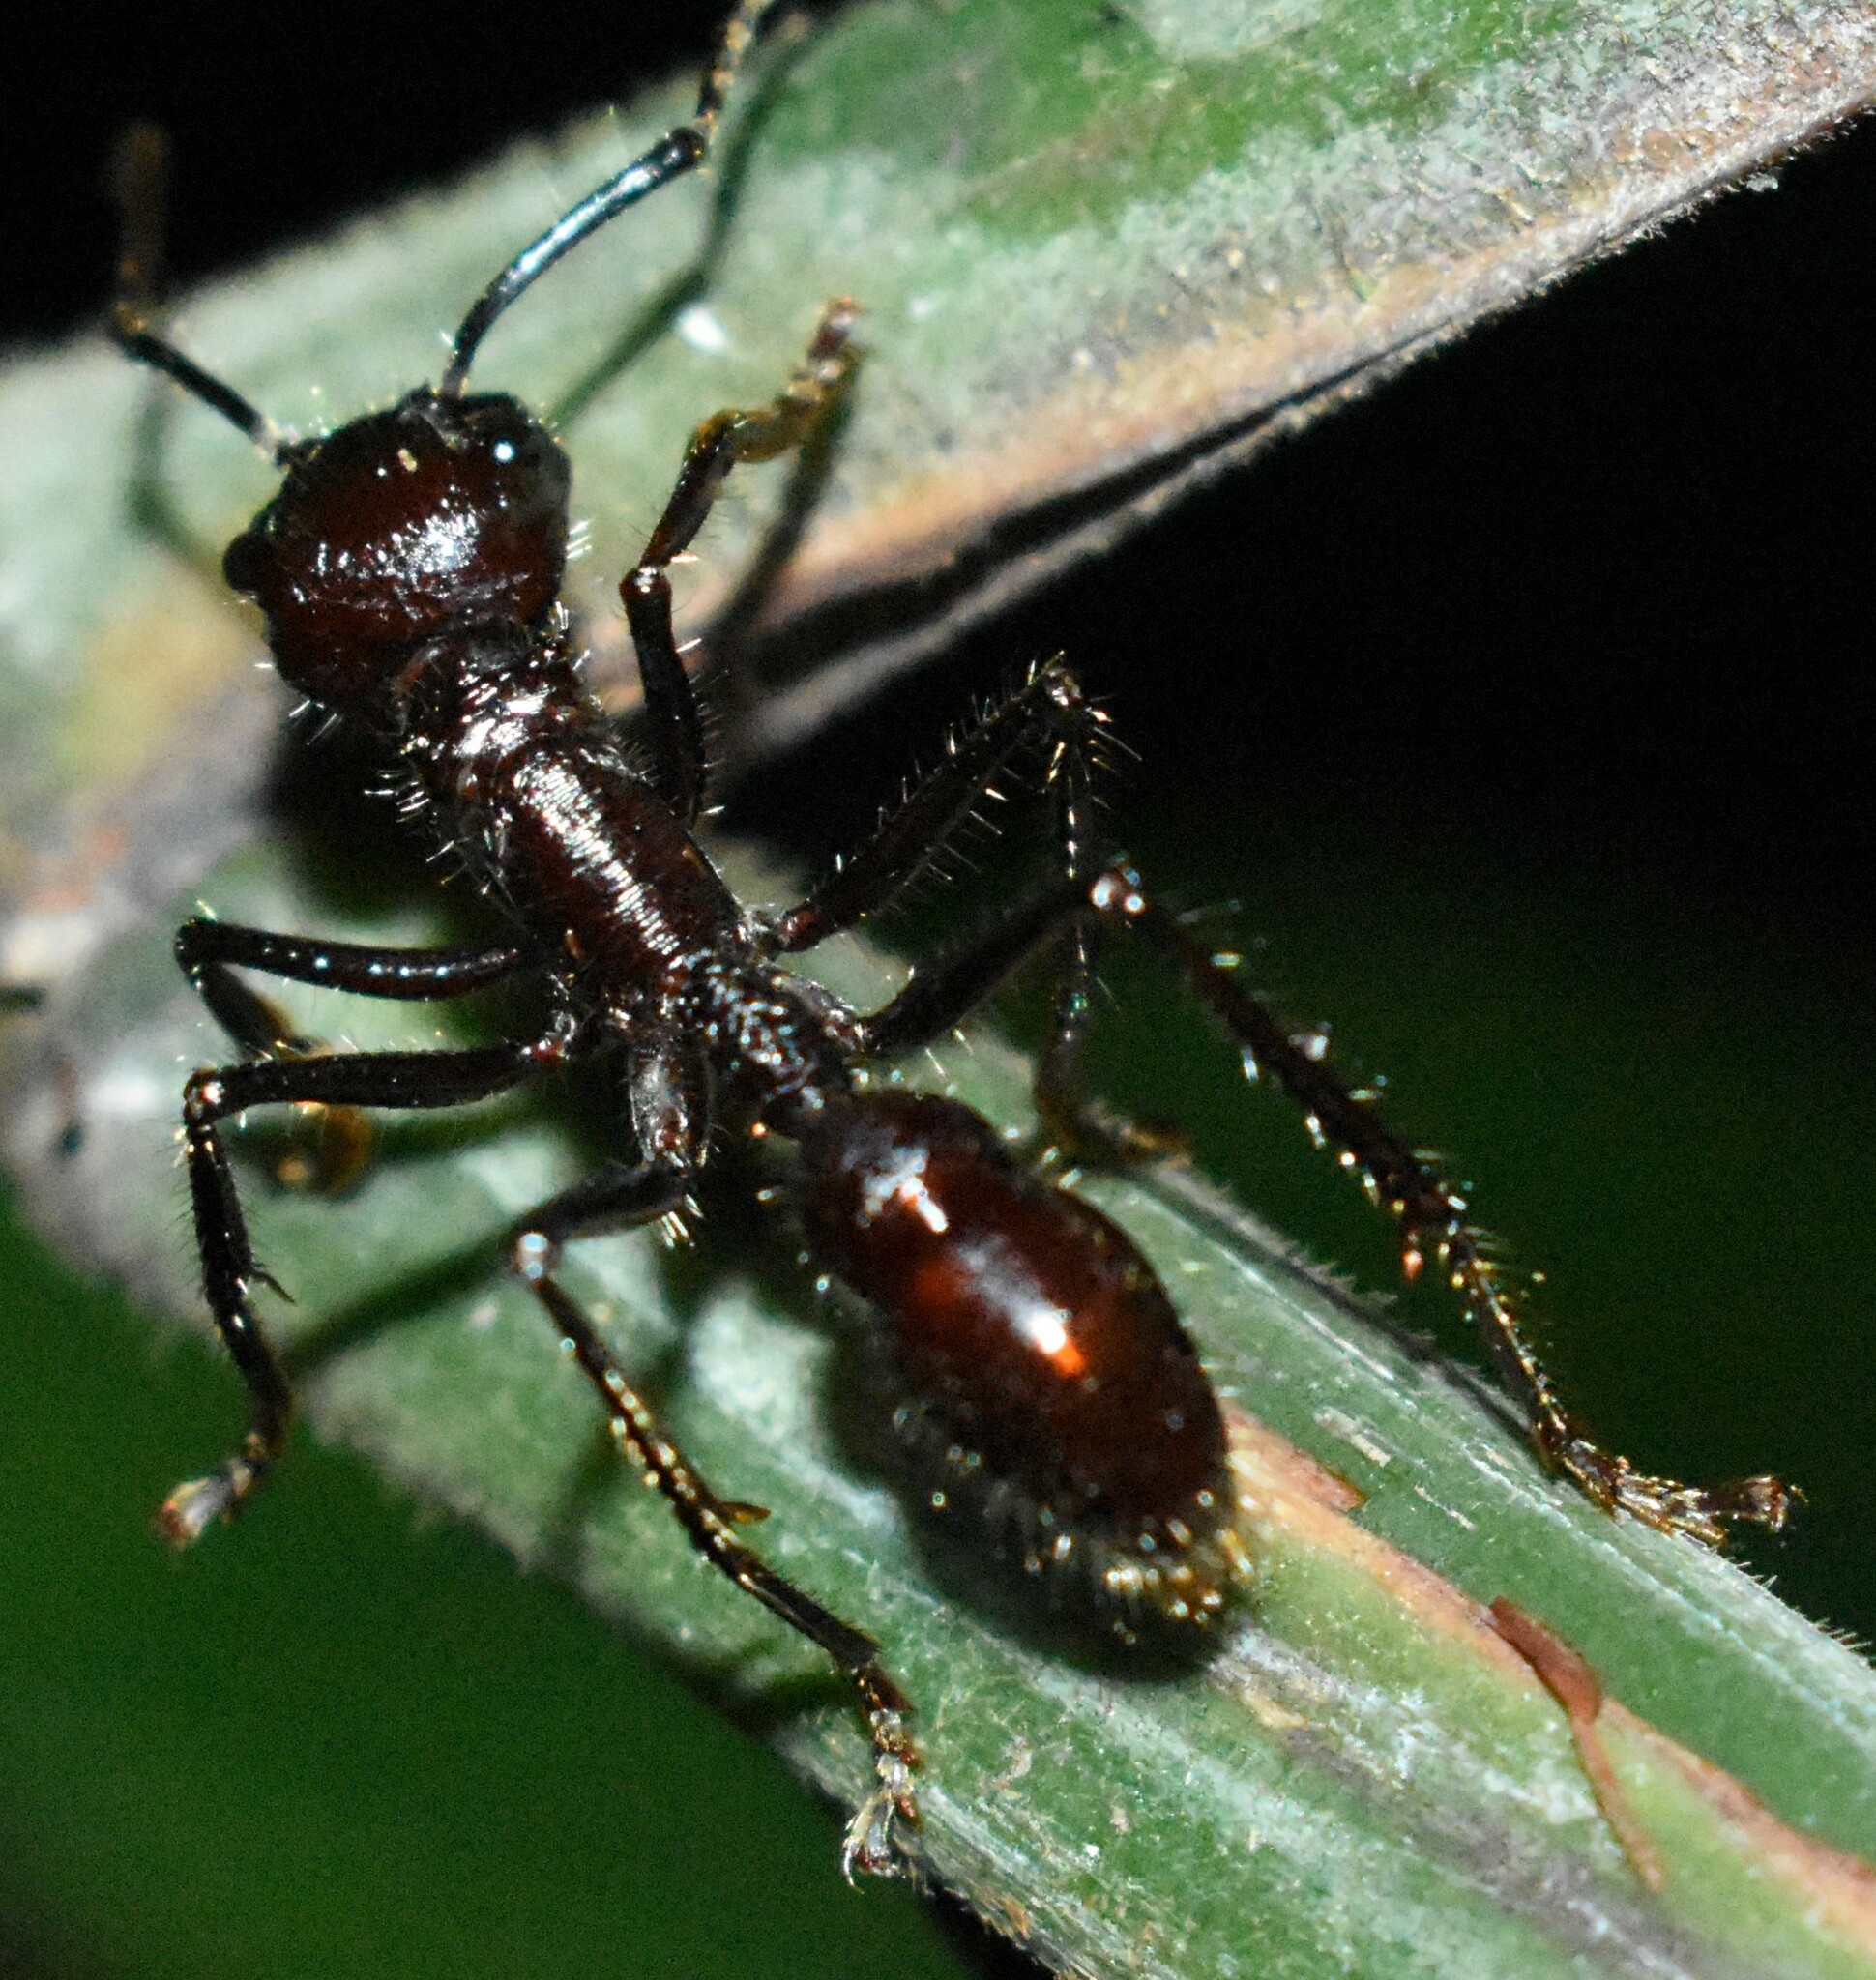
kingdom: Animalia
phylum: Arthropoda
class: Insecta
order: Hymenoptera
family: Formicidae
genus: Paraponera
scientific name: Paraponera clavata
